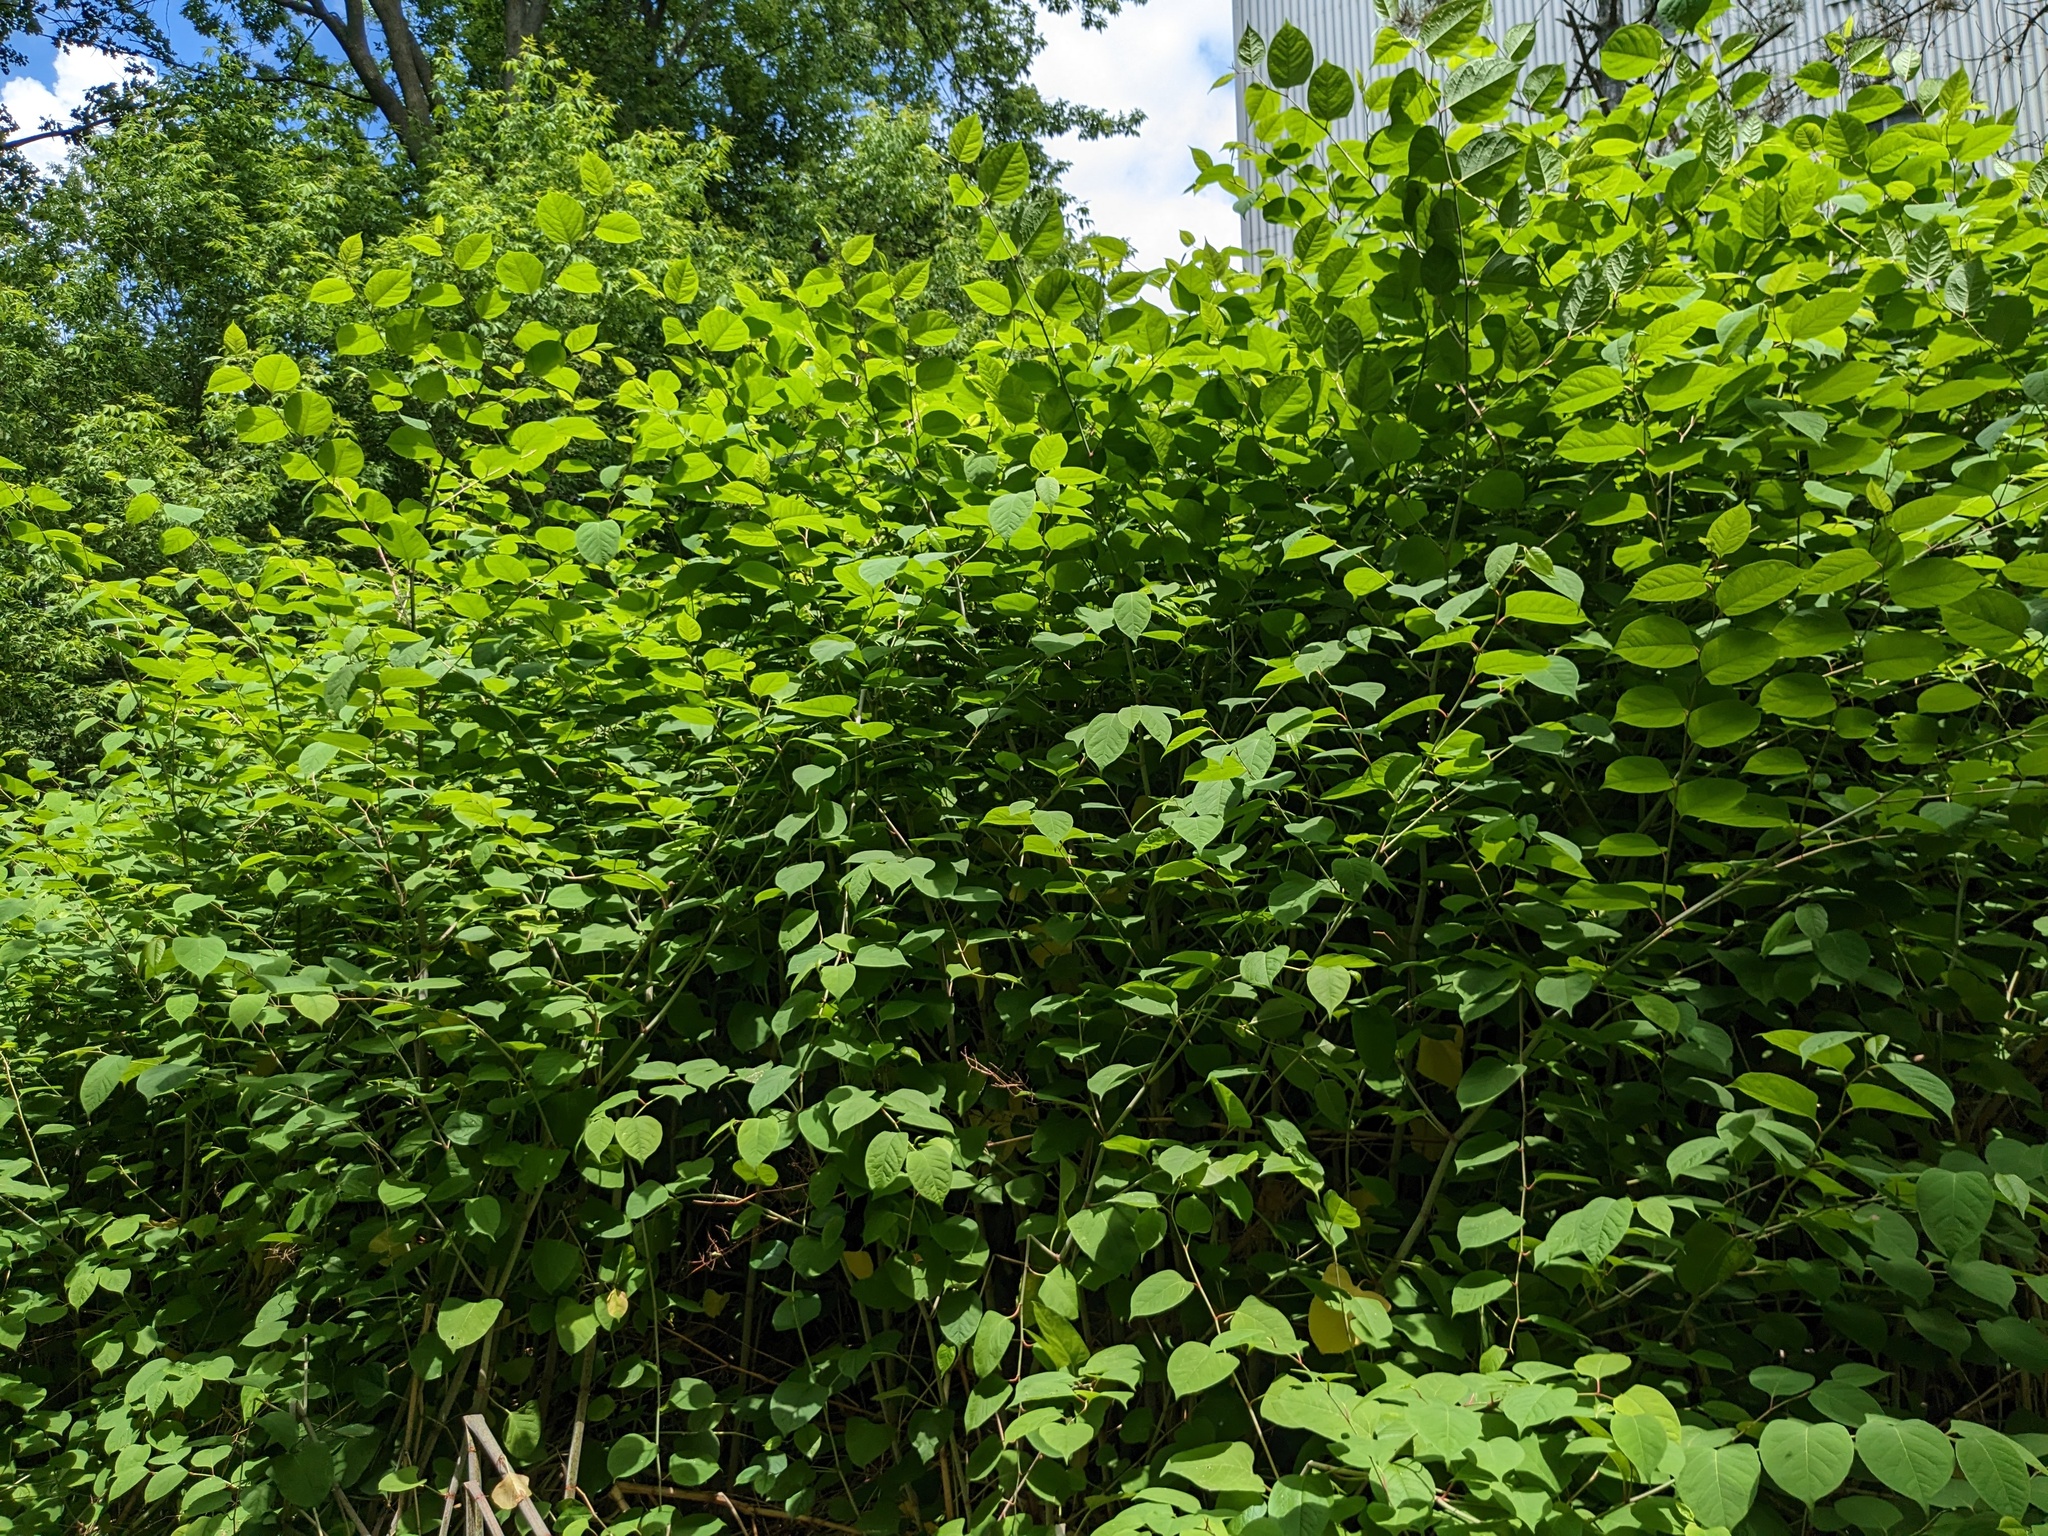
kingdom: Plantae
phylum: Tracheophyta
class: Magnoliopsida
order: Caryophyllales
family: Polygonaceae
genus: Reynoutria
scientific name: Reynoutria japonica
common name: Japanese knotweed
